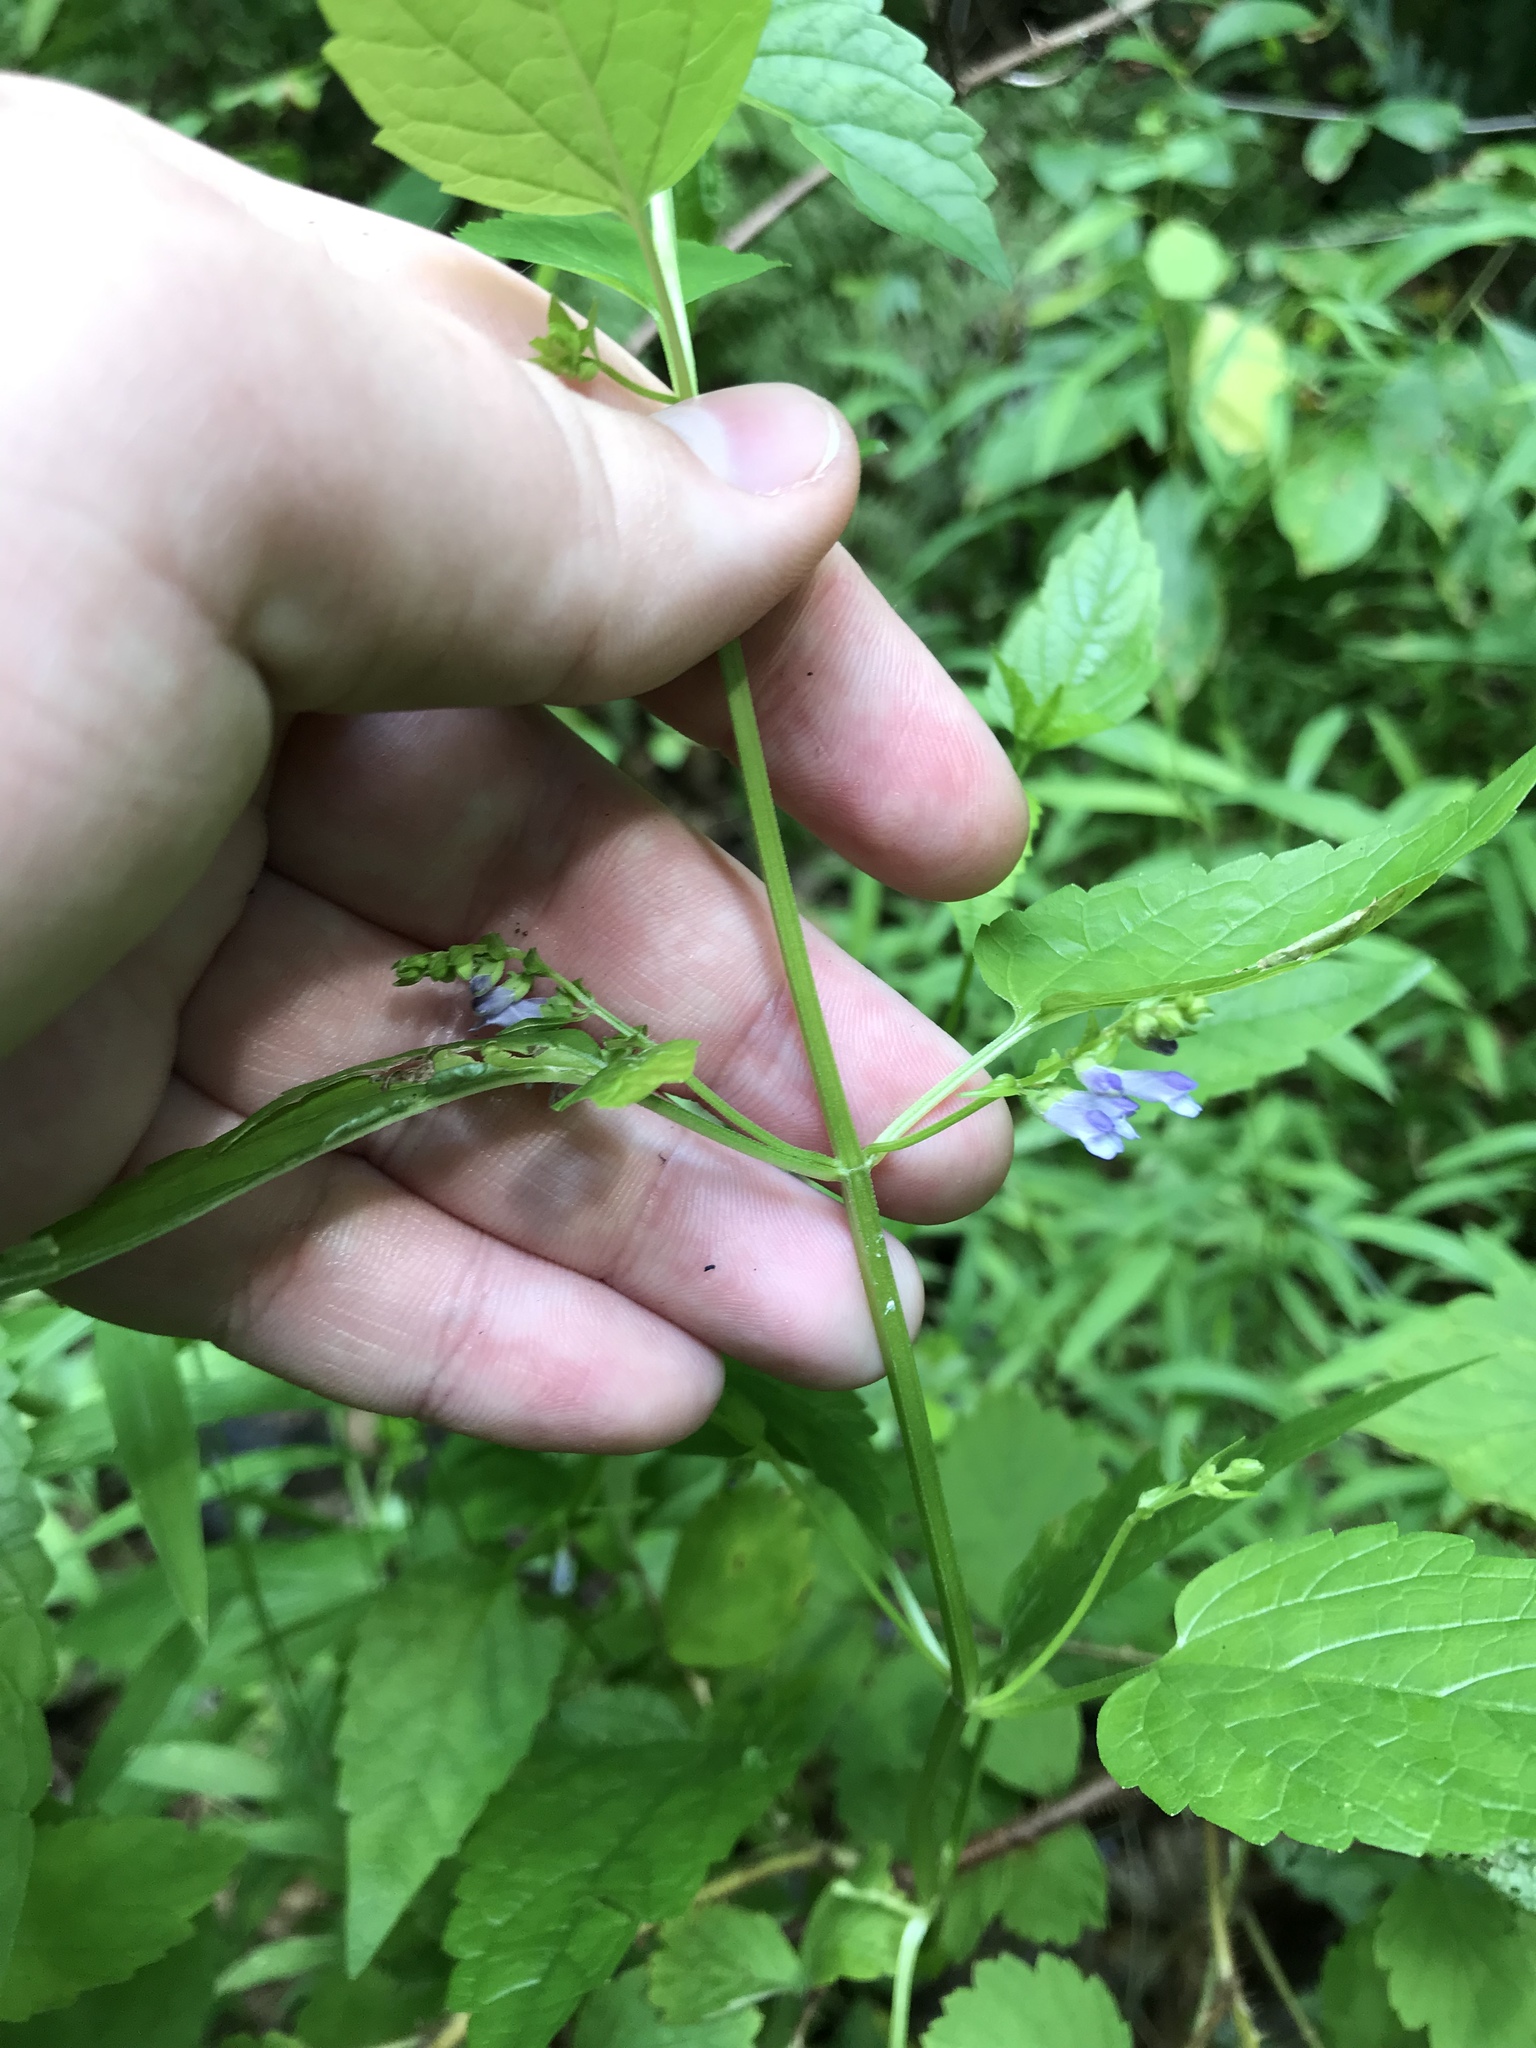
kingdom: Plantae
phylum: Tracheophyta
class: Magnoliopsida
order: Lamiales
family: Lamiaceae
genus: Scutellaria
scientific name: Scutellaria lateriflora
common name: Blue skullcap
